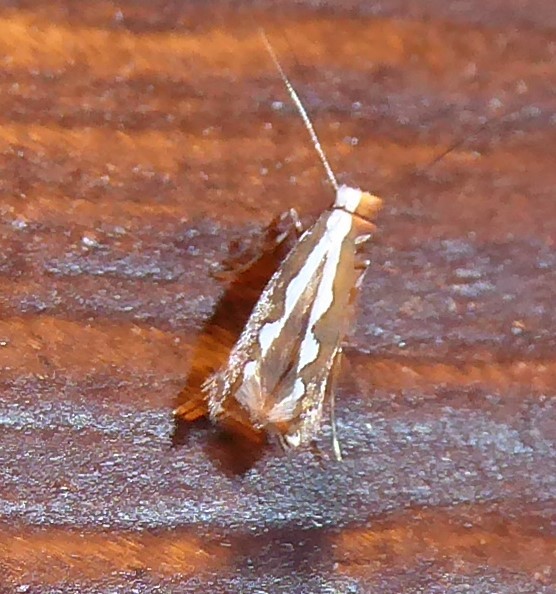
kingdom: Animalia
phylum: Arthropoda
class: Insecta
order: Lepidoptera
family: Gracillariidae
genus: Dialectica
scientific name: Dialectica scalariella
